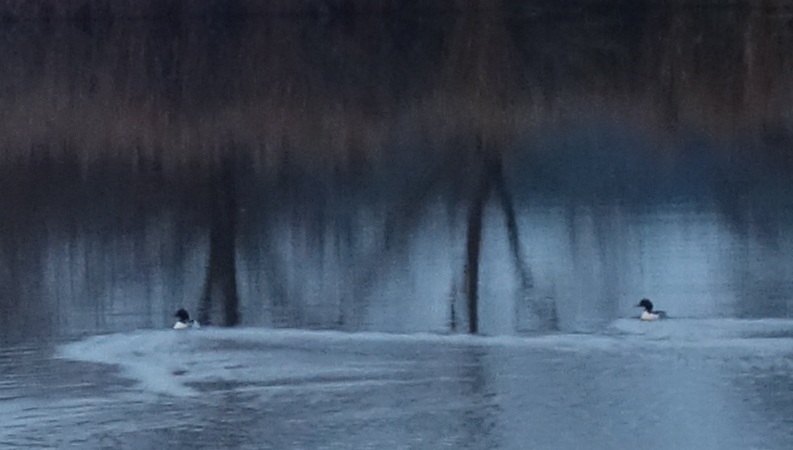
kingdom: Animalia
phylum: Chordata
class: Aves
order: Anseriformes
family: Anatidae
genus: Mergus
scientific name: Mergus merganser
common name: Common merganser
